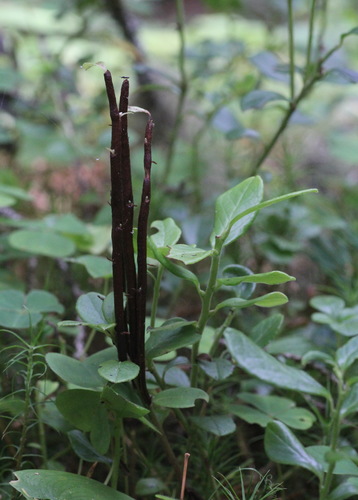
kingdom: Fungi
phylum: Basidiomycota
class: Pucciniomycetes
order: Pucciniales
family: Pucciniastraceae
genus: Calyptospora
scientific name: Calyptospora columnaris
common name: Huckleberry broom rust fungus
